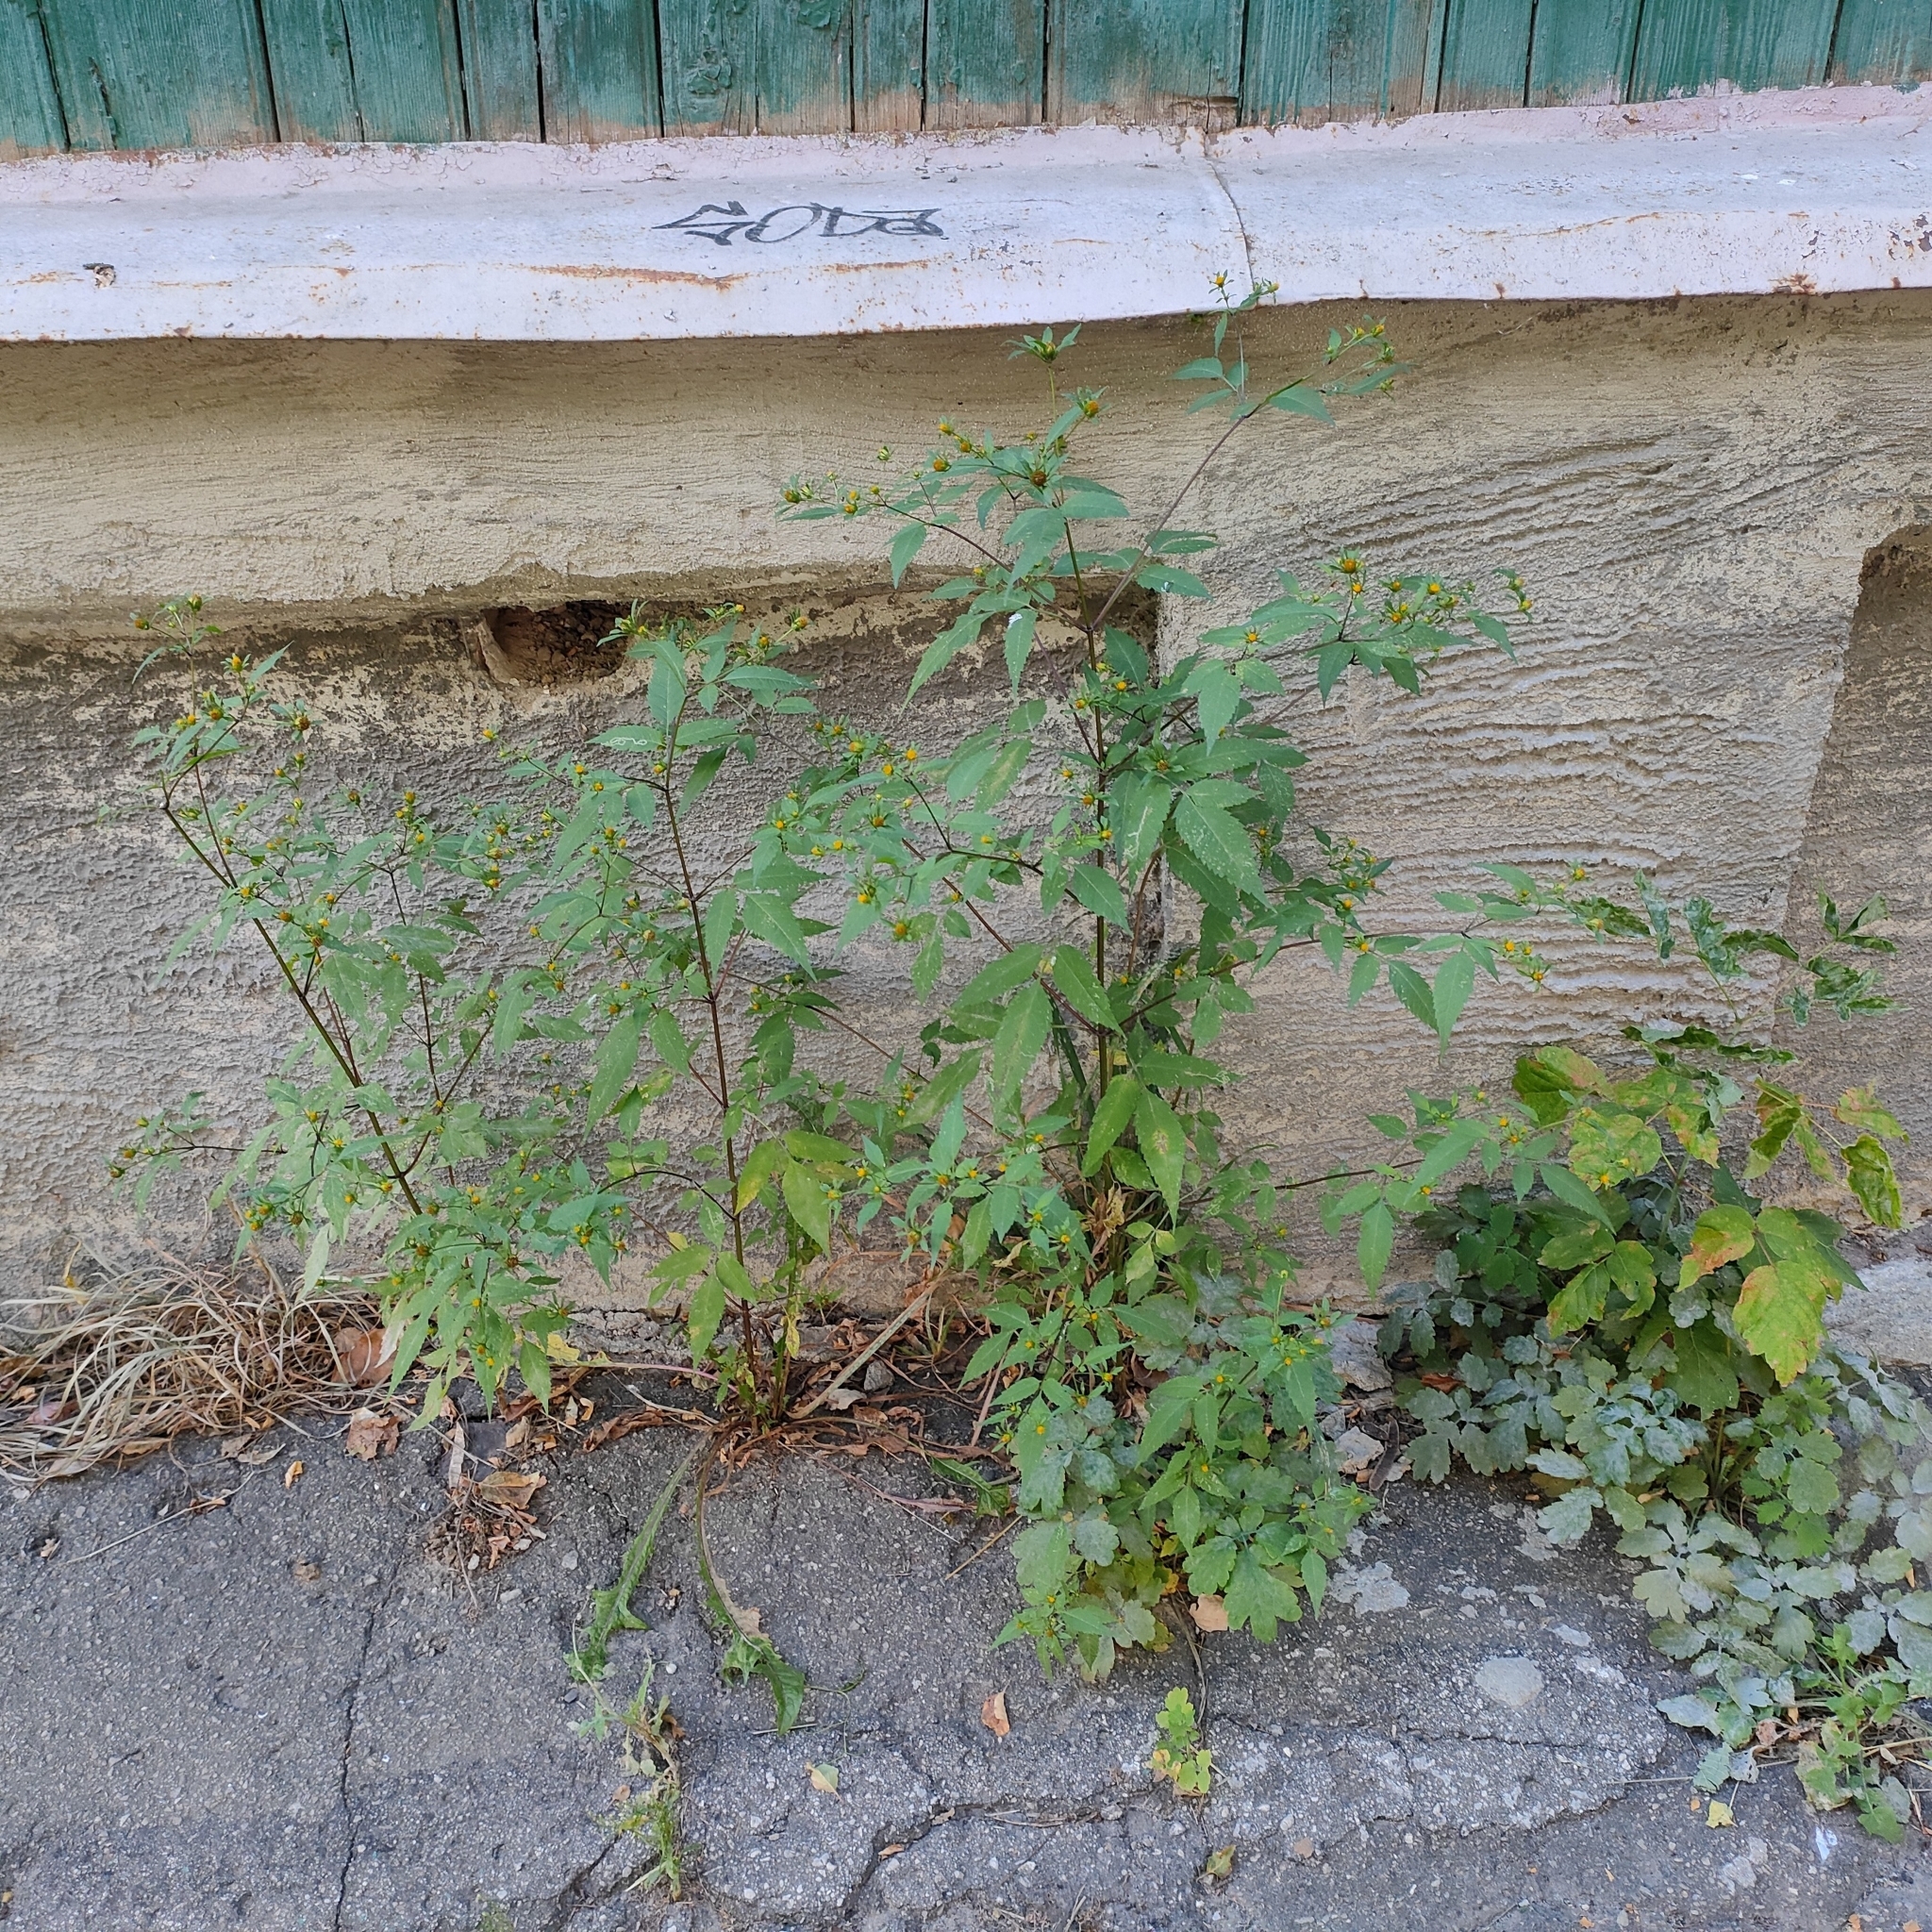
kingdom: Plantae
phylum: Tracheophyta
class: Magnoliopsida
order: Asterales
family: Asteraceae
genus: Bidens
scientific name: Bidens frondosa
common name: Beggarticks
